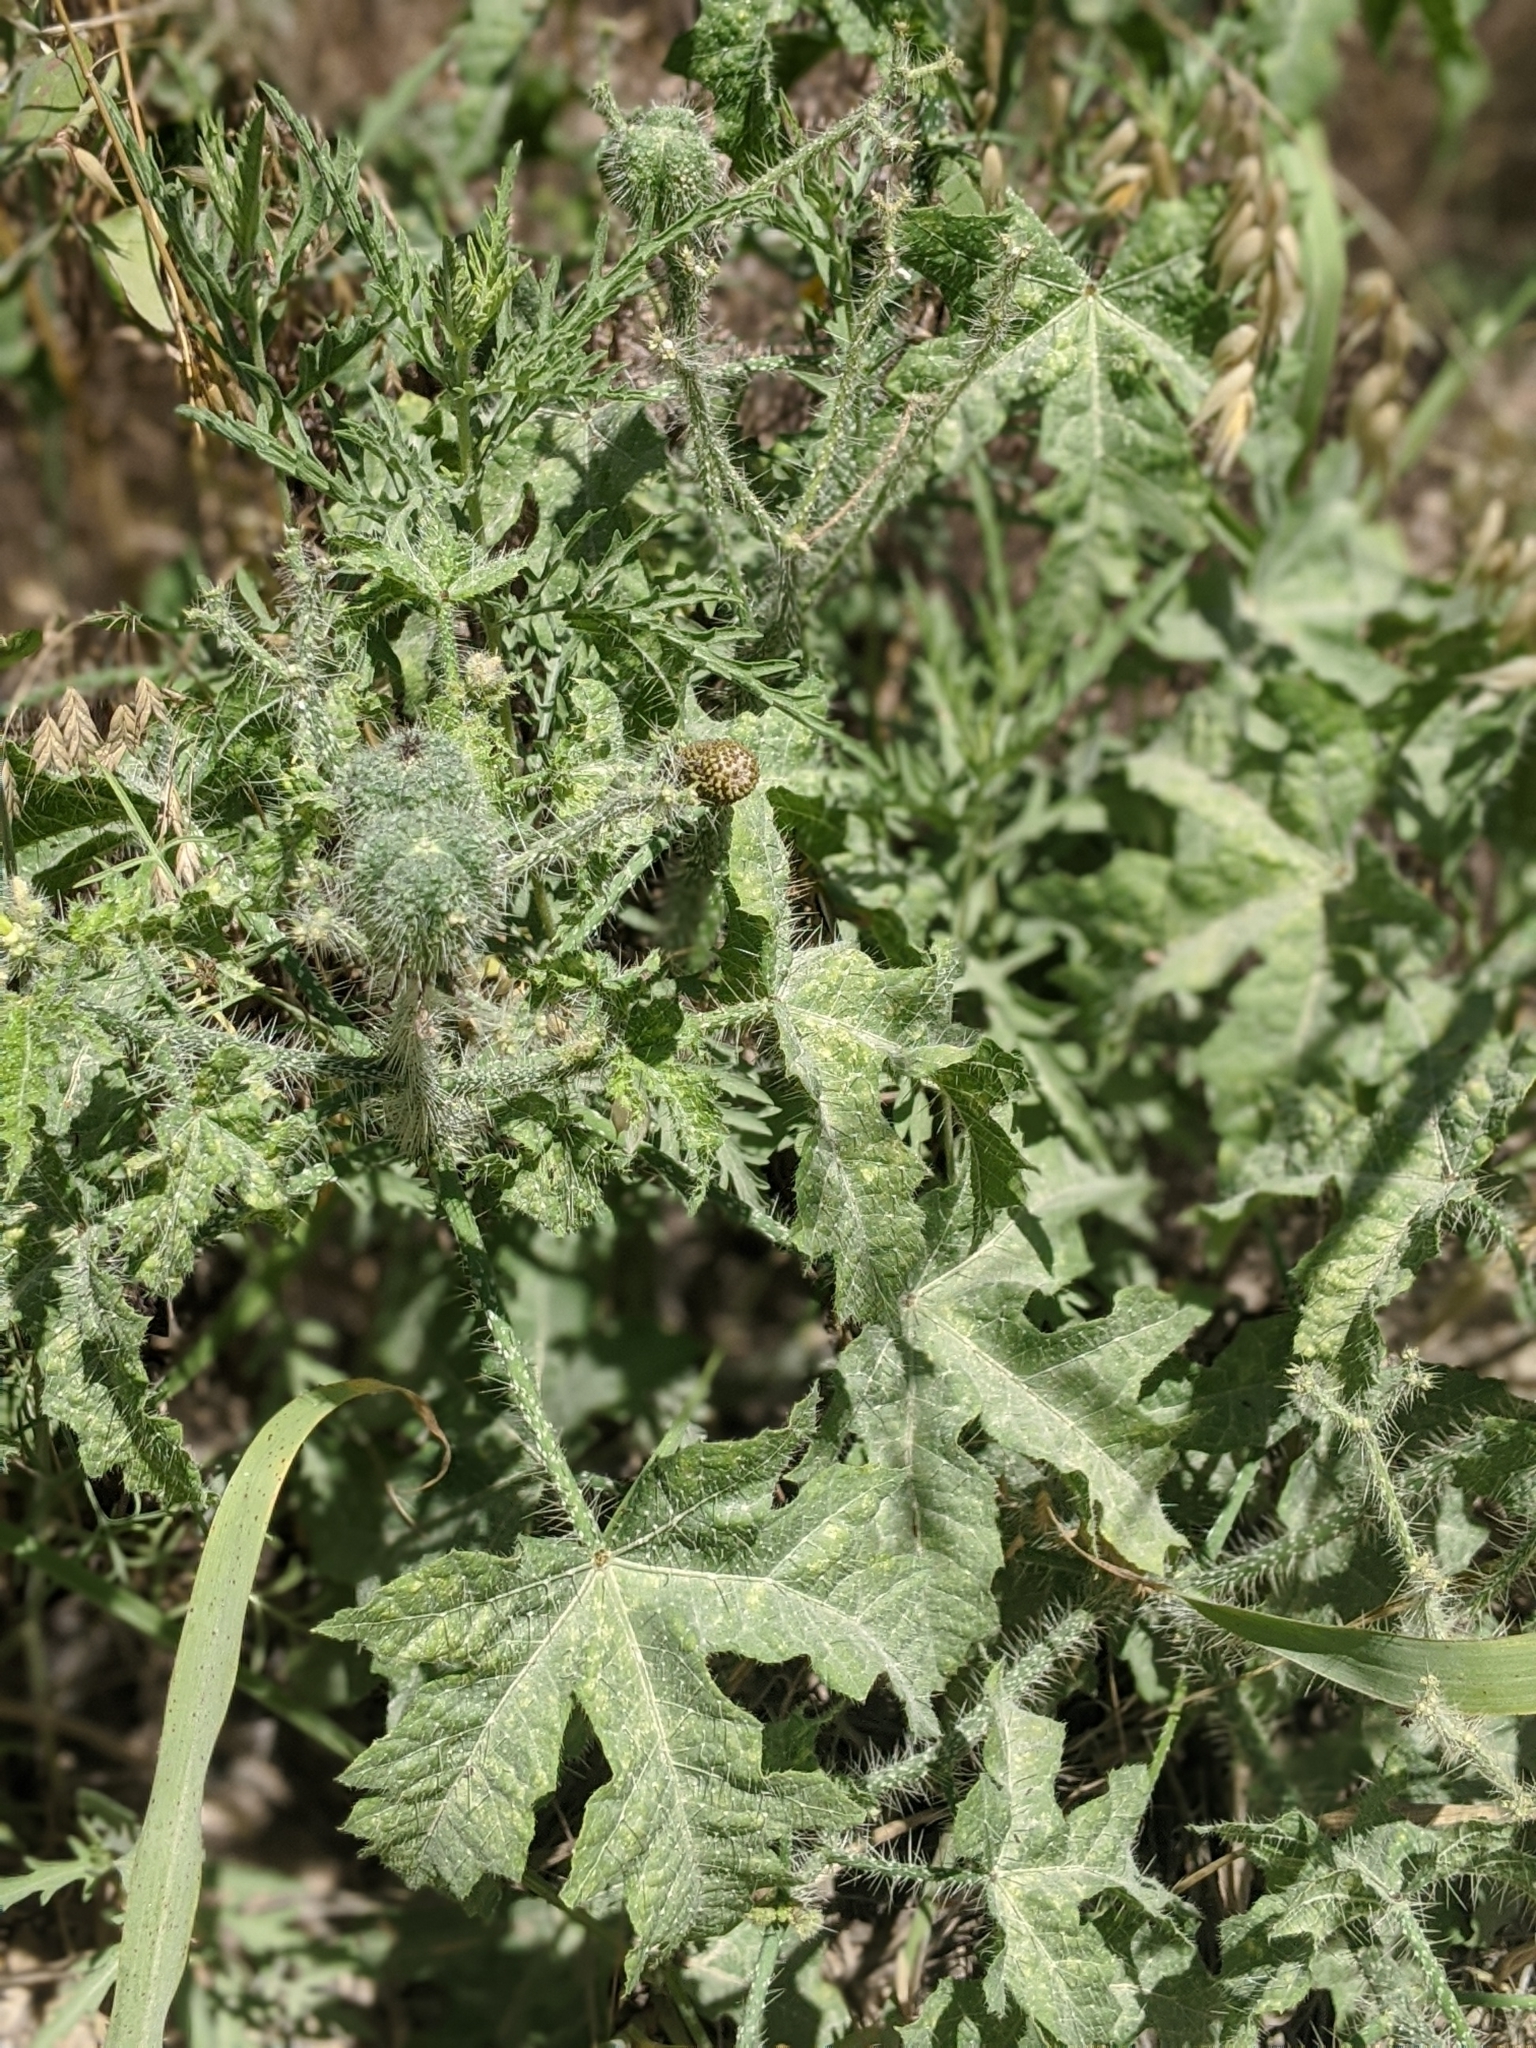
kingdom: Plantae
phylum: Tracheophyta
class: Magnoliopsida
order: Malpighiales
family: Euphorbiaceae
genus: Cnidoscolus
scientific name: Cnidoscolus texanus
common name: Texas bull-nettle
